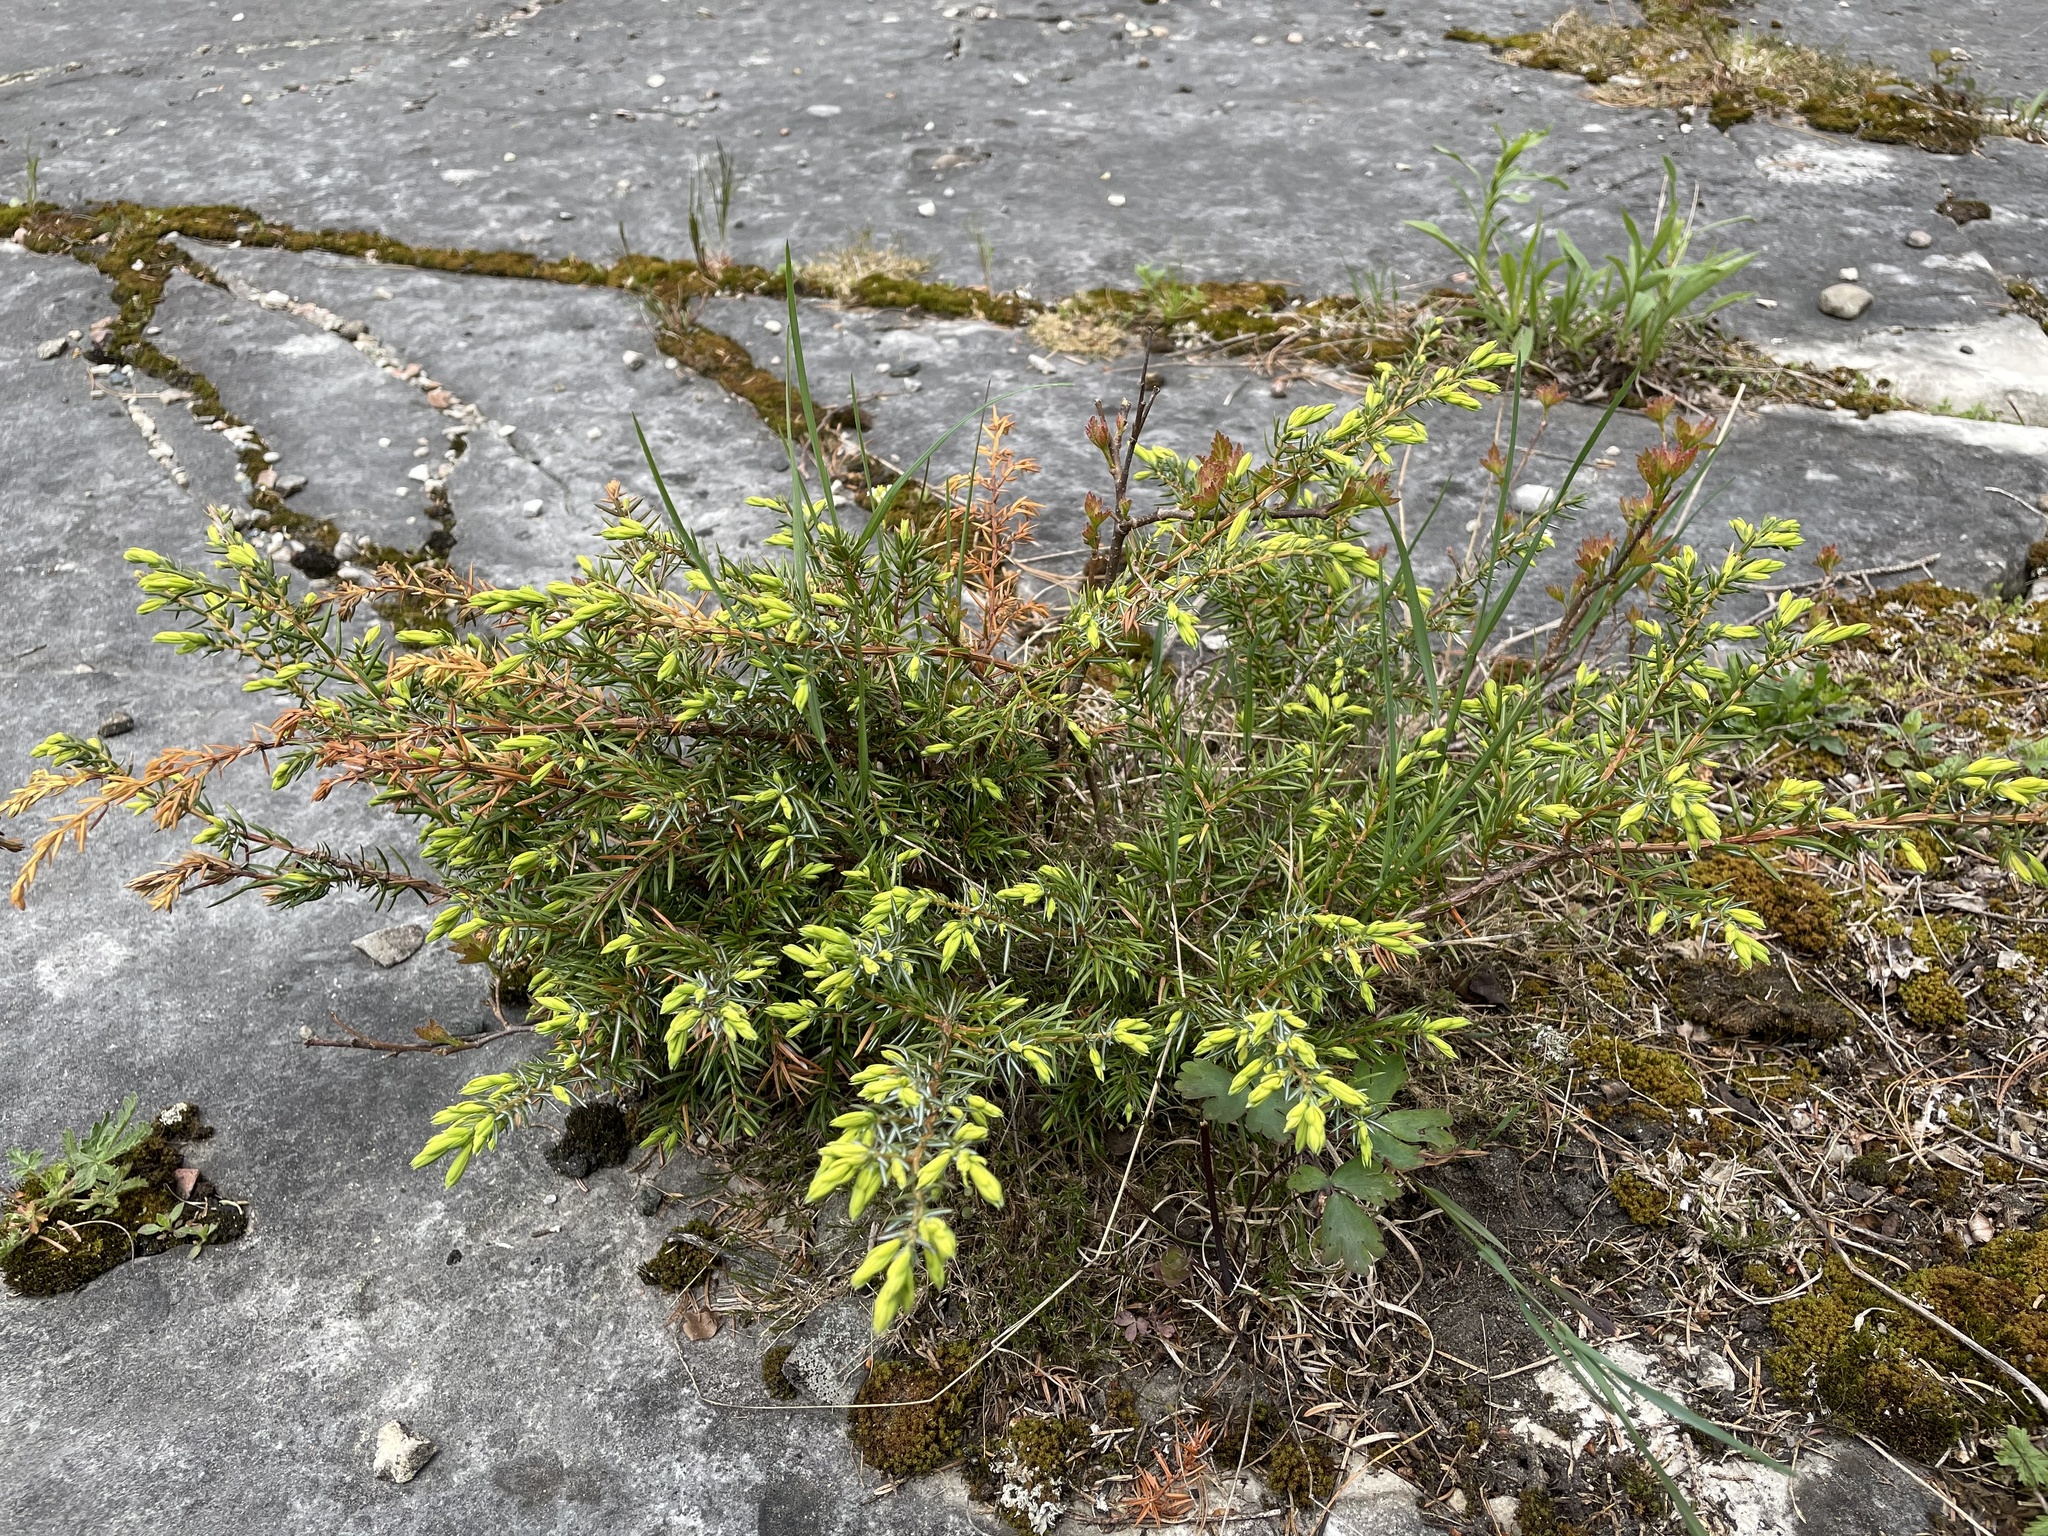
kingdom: Plantae
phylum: Tracheophyta
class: Pinopsida
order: Pinales
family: Cupressaceae
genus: Juniperus
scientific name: Juniperus communis
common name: Common juniper
